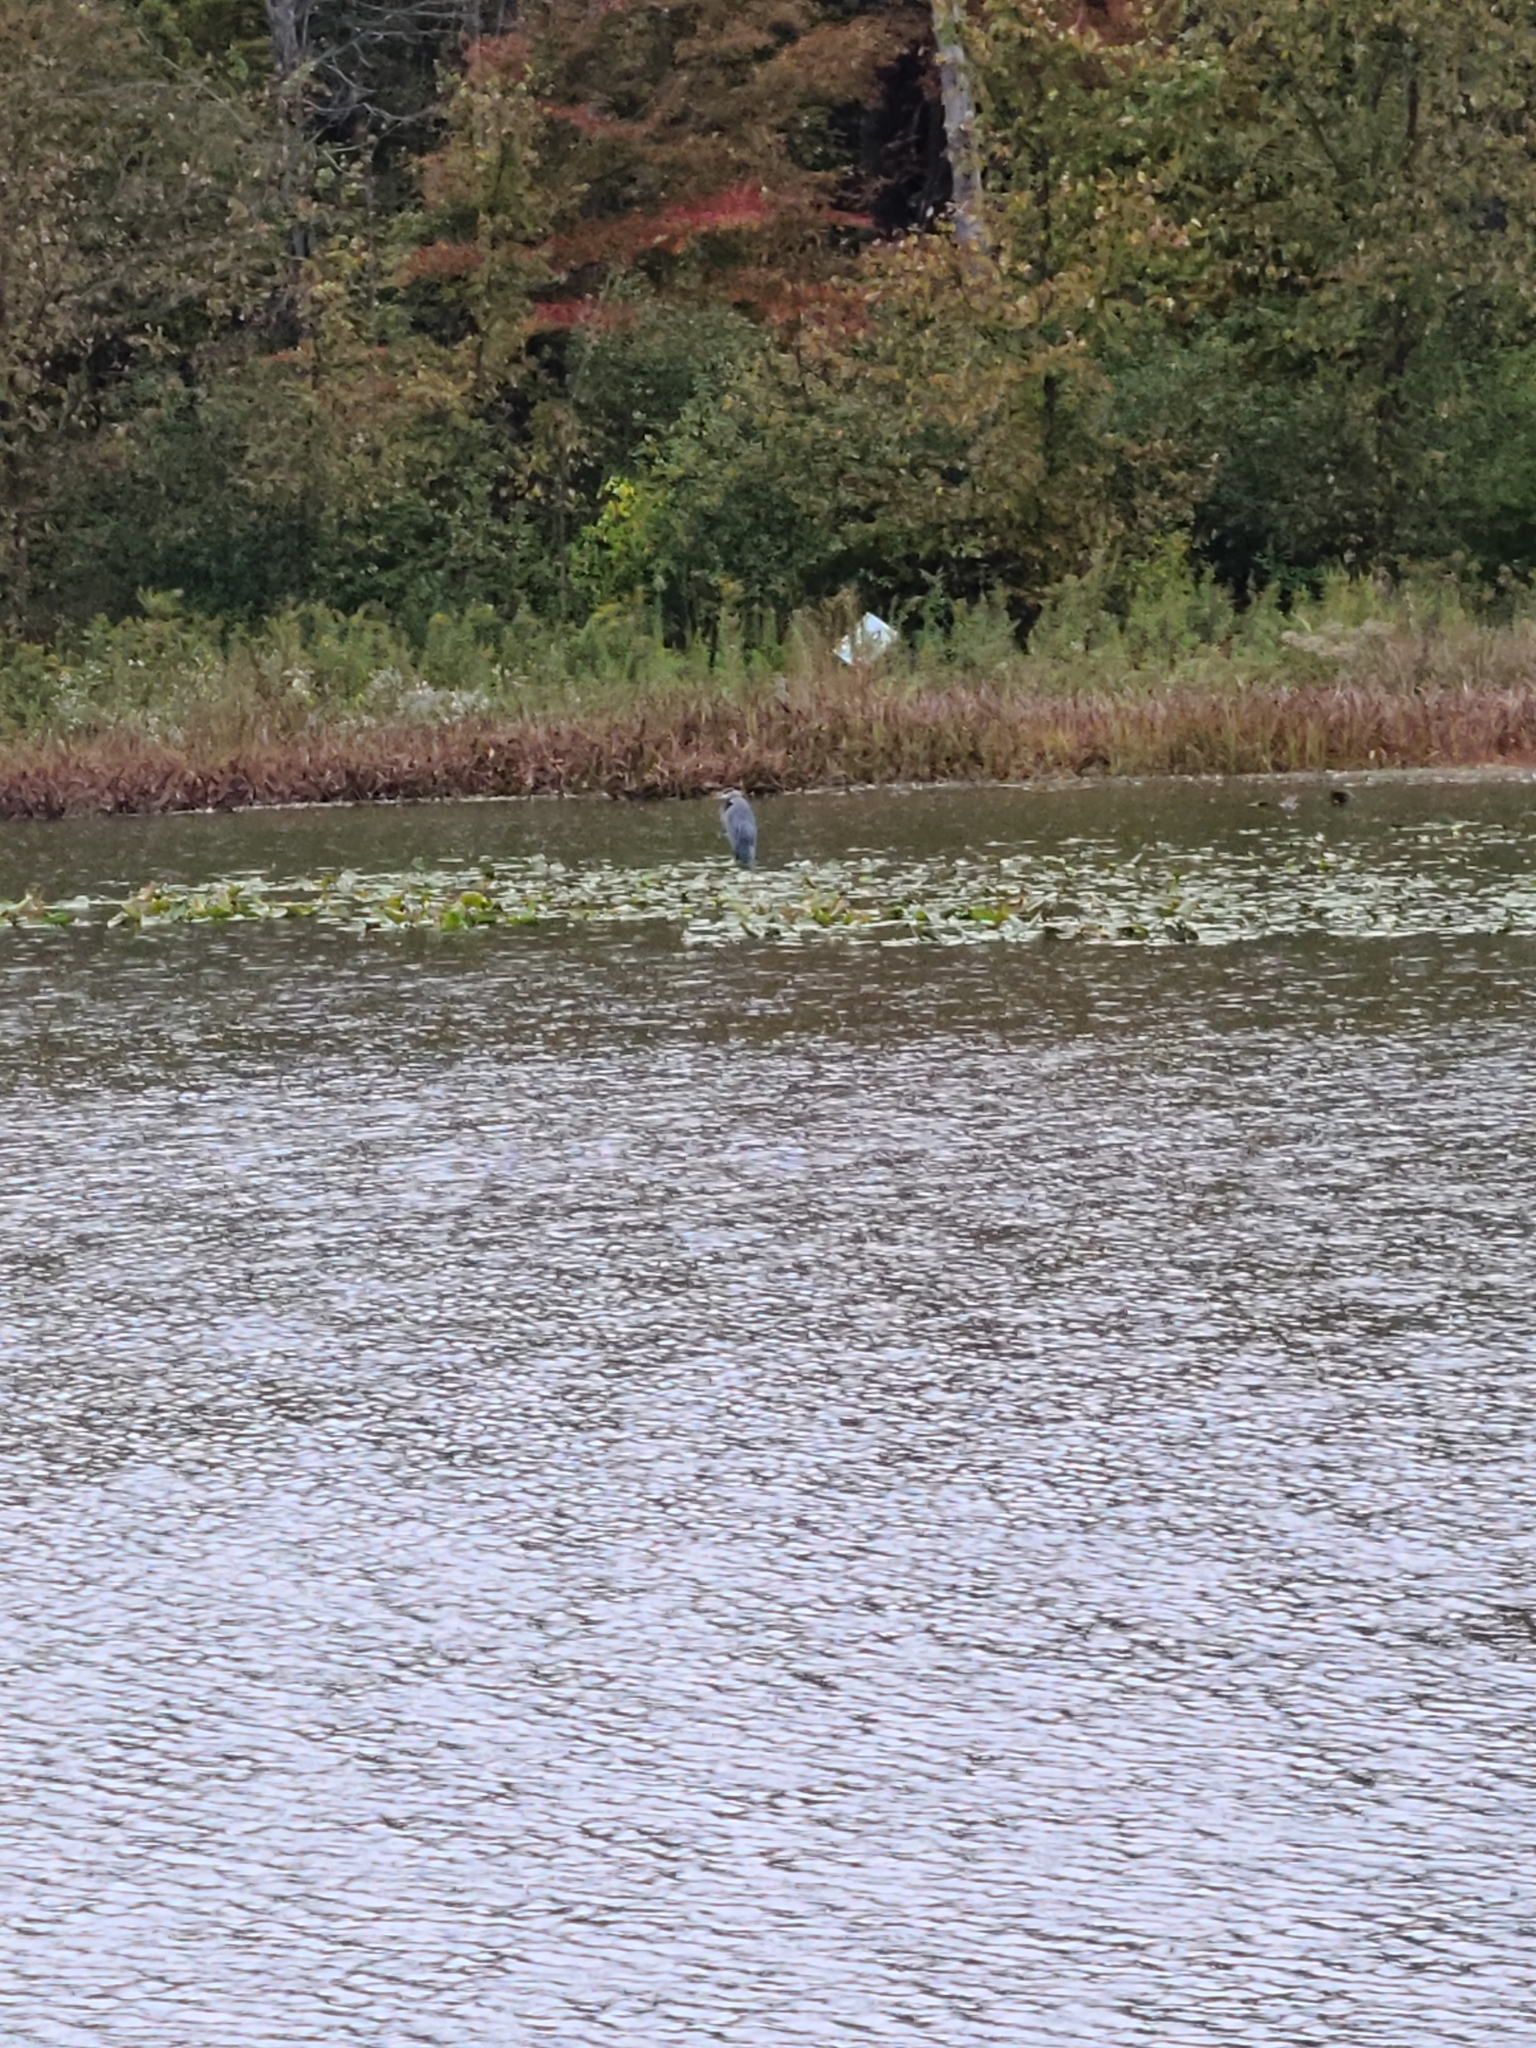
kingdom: Animalia
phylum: Chordata
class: Aves
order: Pelecaniformes
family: Ardeidae
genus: Ardea
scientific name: Ardea herodias
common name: Great blue heron
